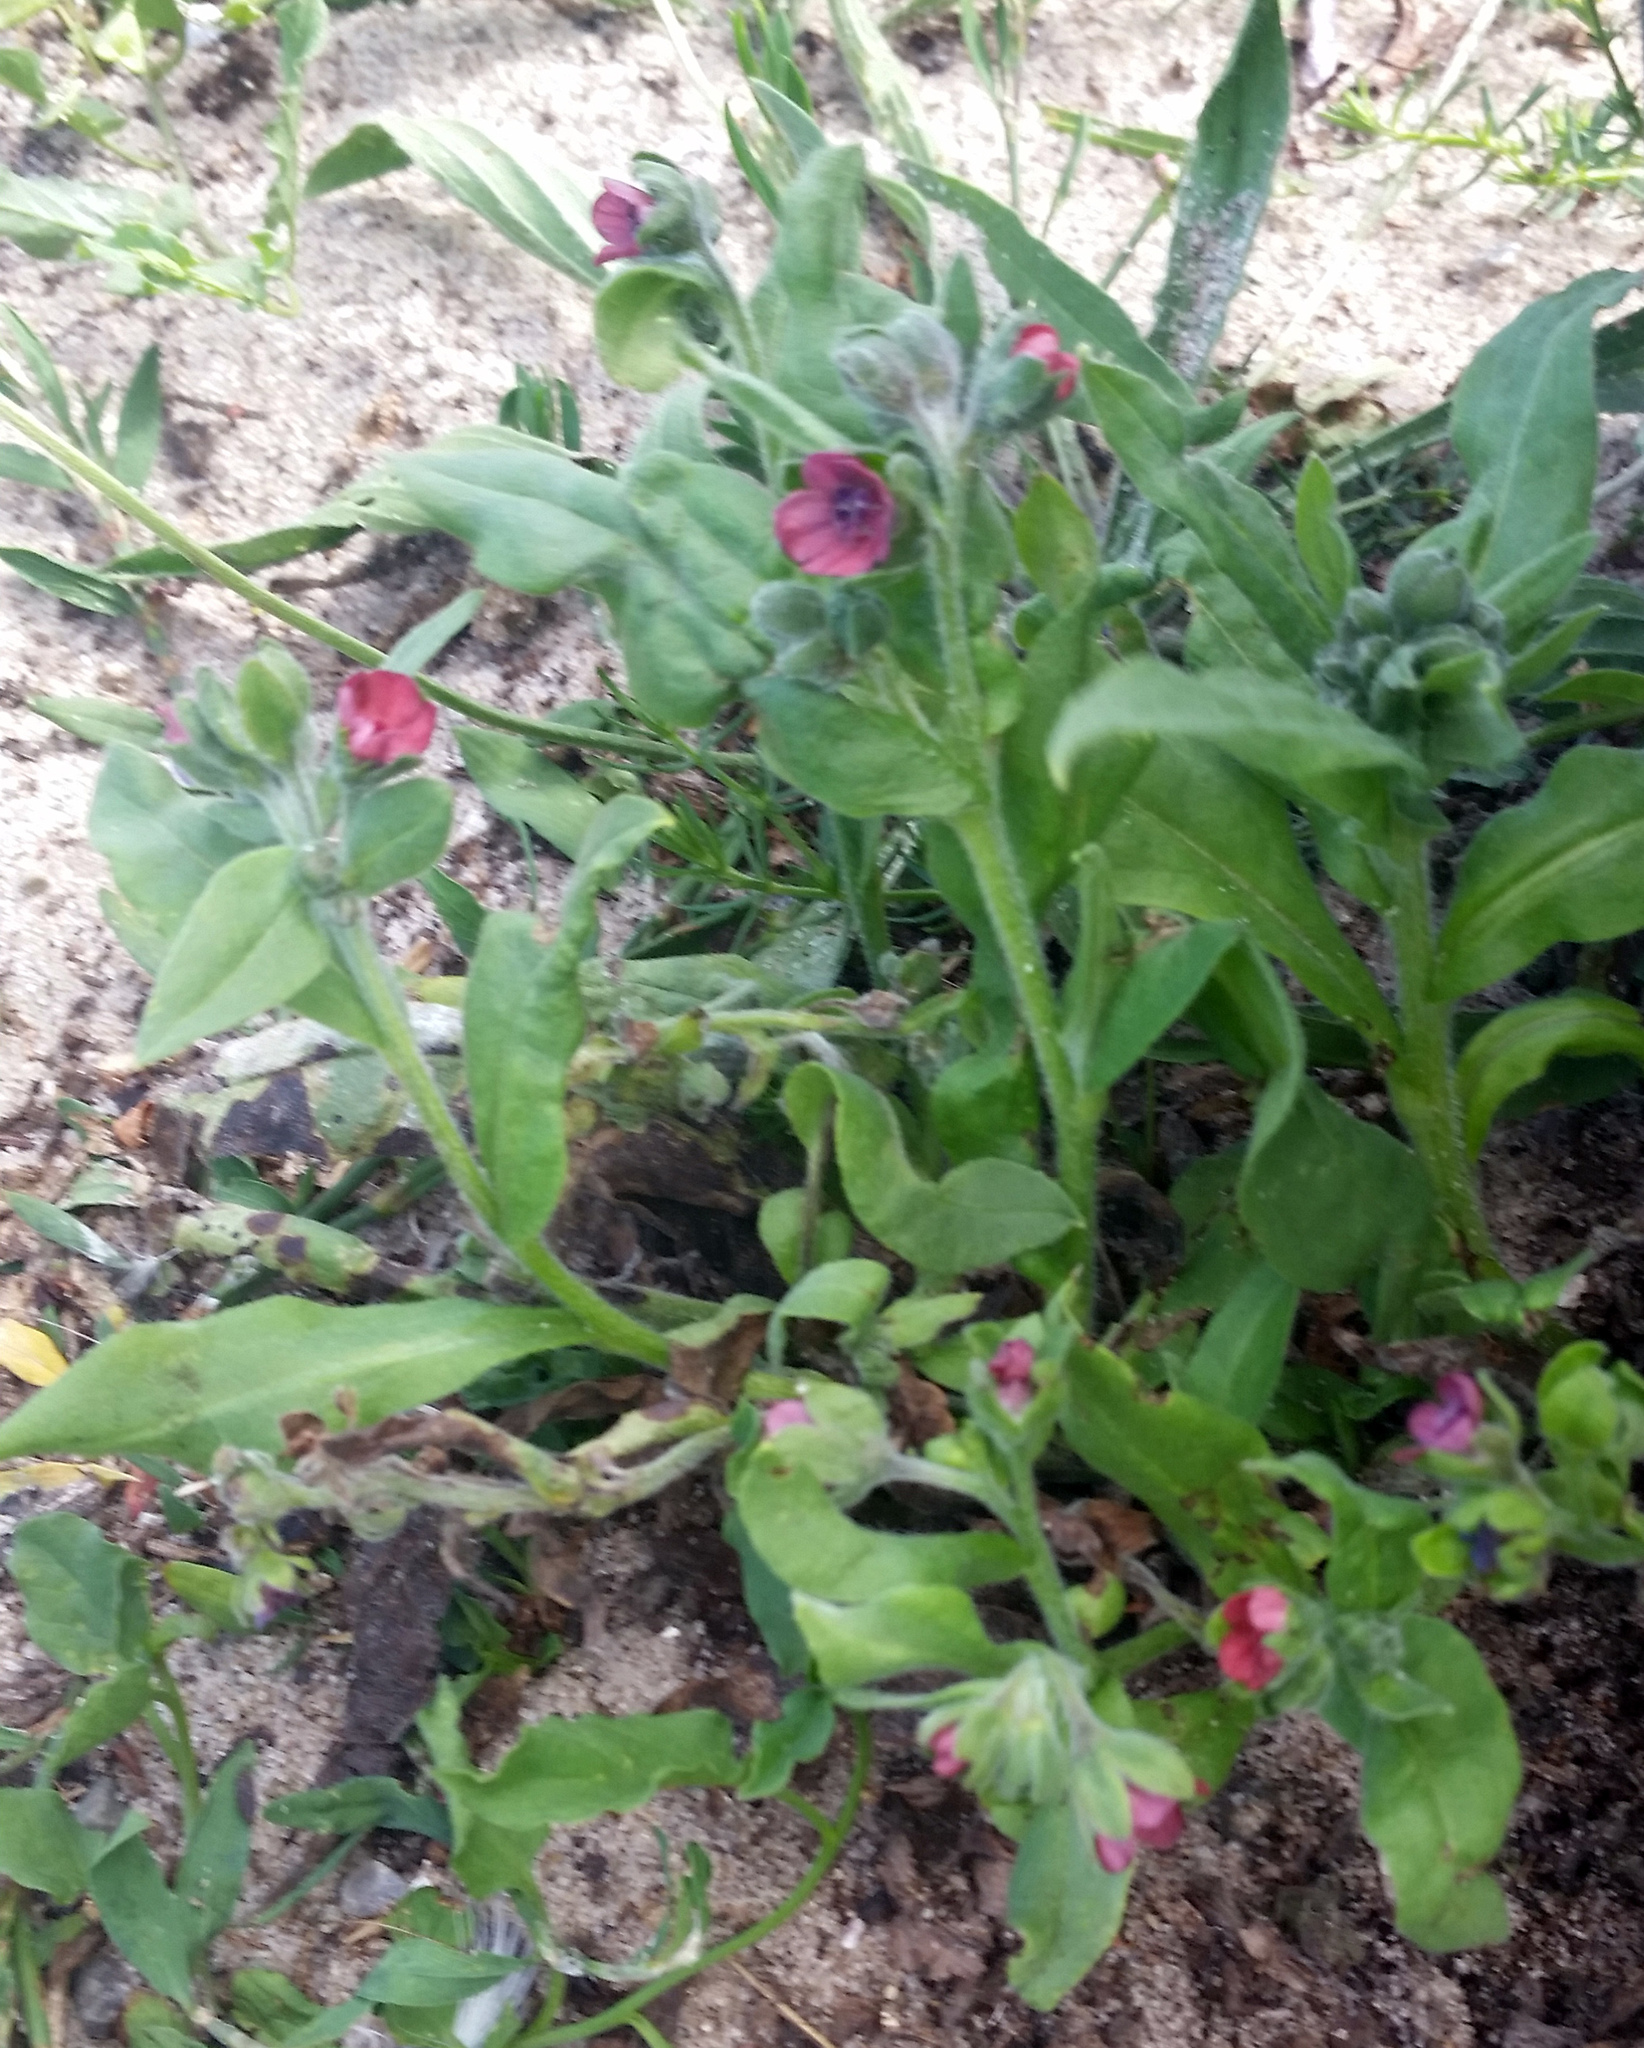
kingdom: Plantae
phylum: Tracheophyta
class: Magnoliopsida
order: Boraginales
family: Boraginaceae
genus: Cynoglossum
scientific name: Cynoglossum officinale
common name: Hound's-tongue
